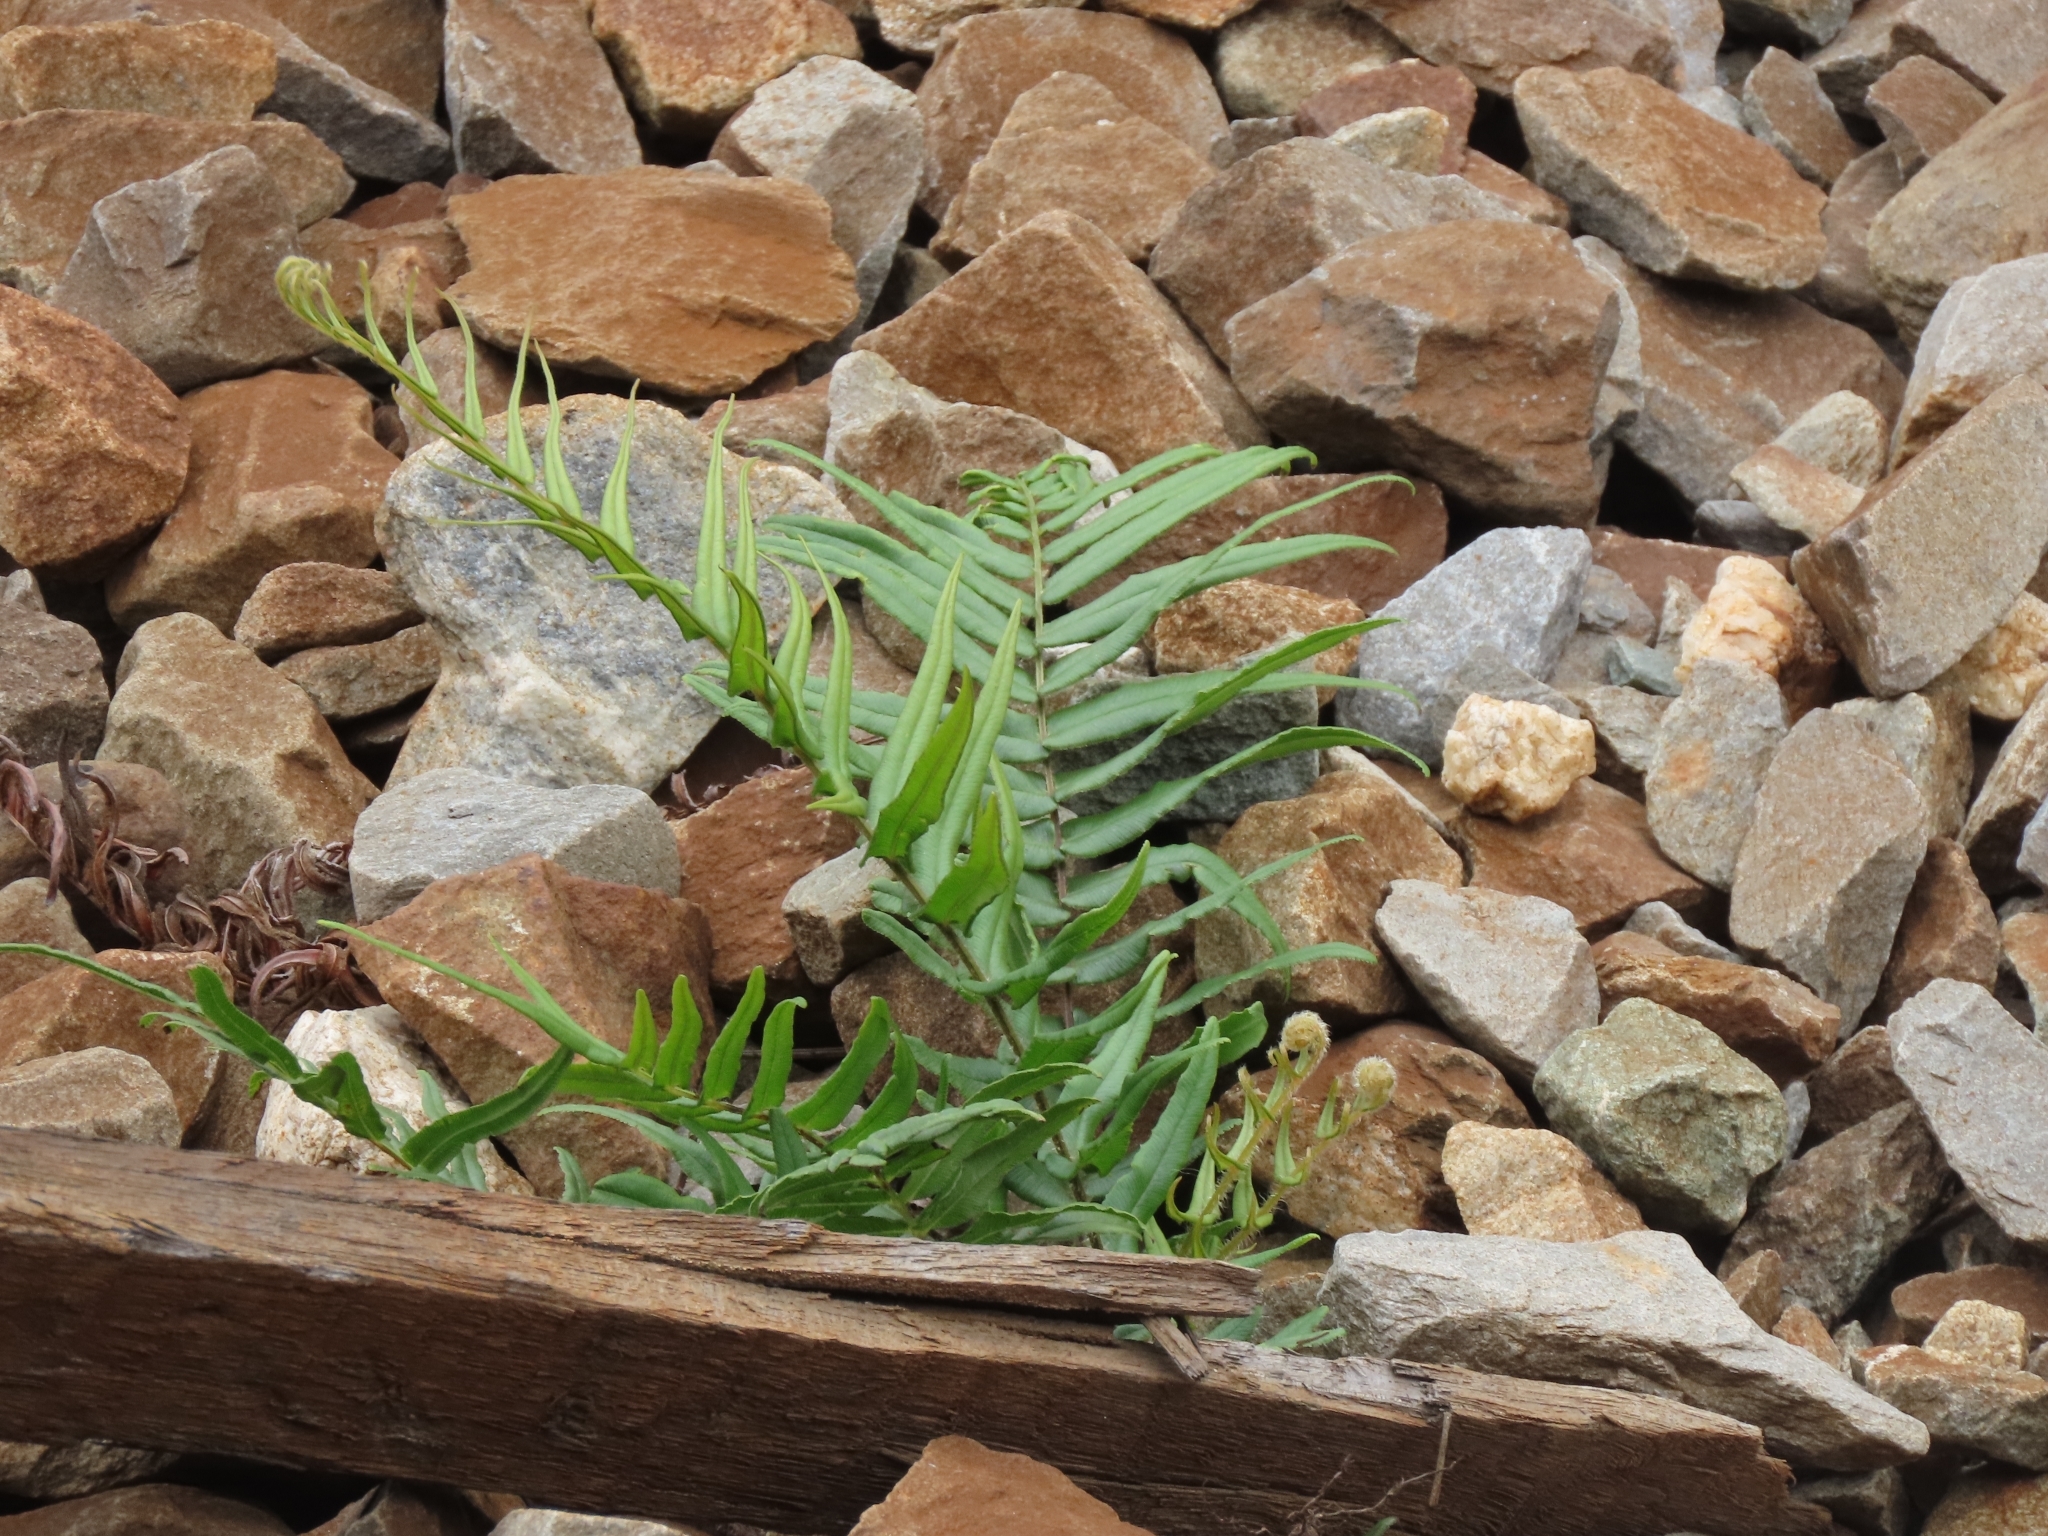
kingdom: Plantae
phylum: Tracheophyta
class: Polypodiopsida
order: Polypodiales
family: Pteridaceae
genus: Pteris
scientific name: Pteris vittata
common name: Ladder brake
